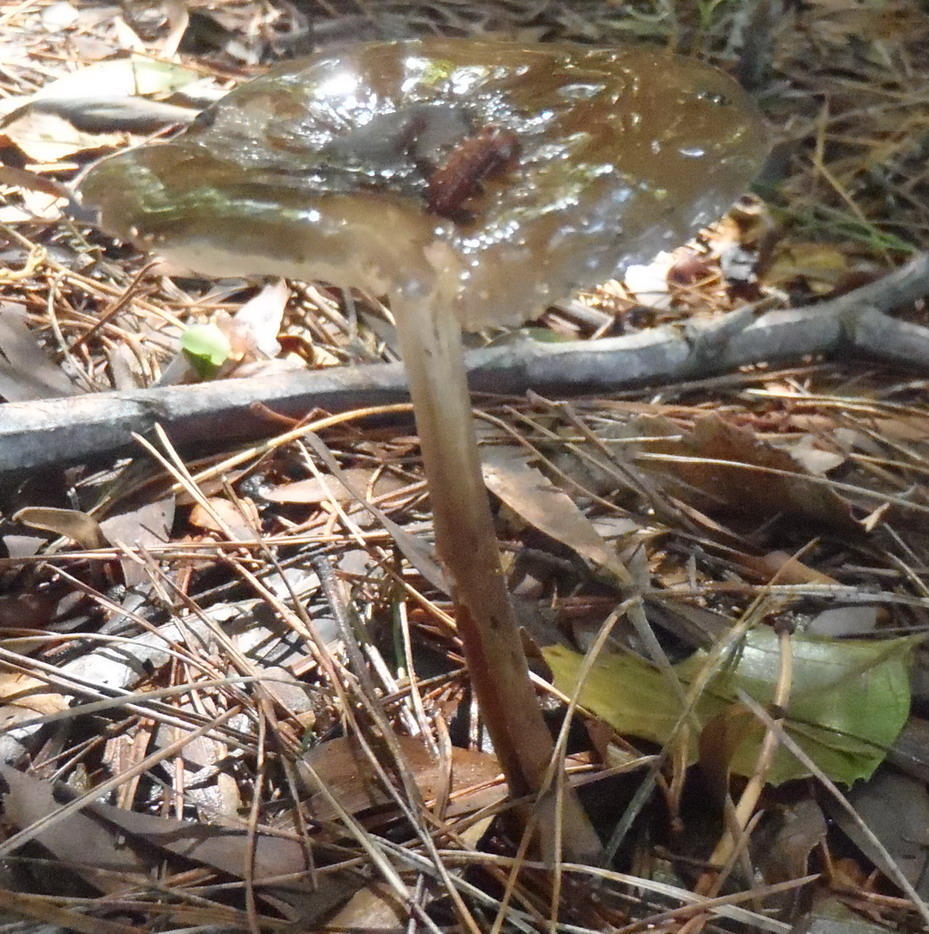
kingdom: Fungi
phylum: Basidiomycota
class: Agaricomycetes
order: Agaricales
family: Physalacriaceae
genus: Hymenopellis
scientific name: Hymenopellis radicata
